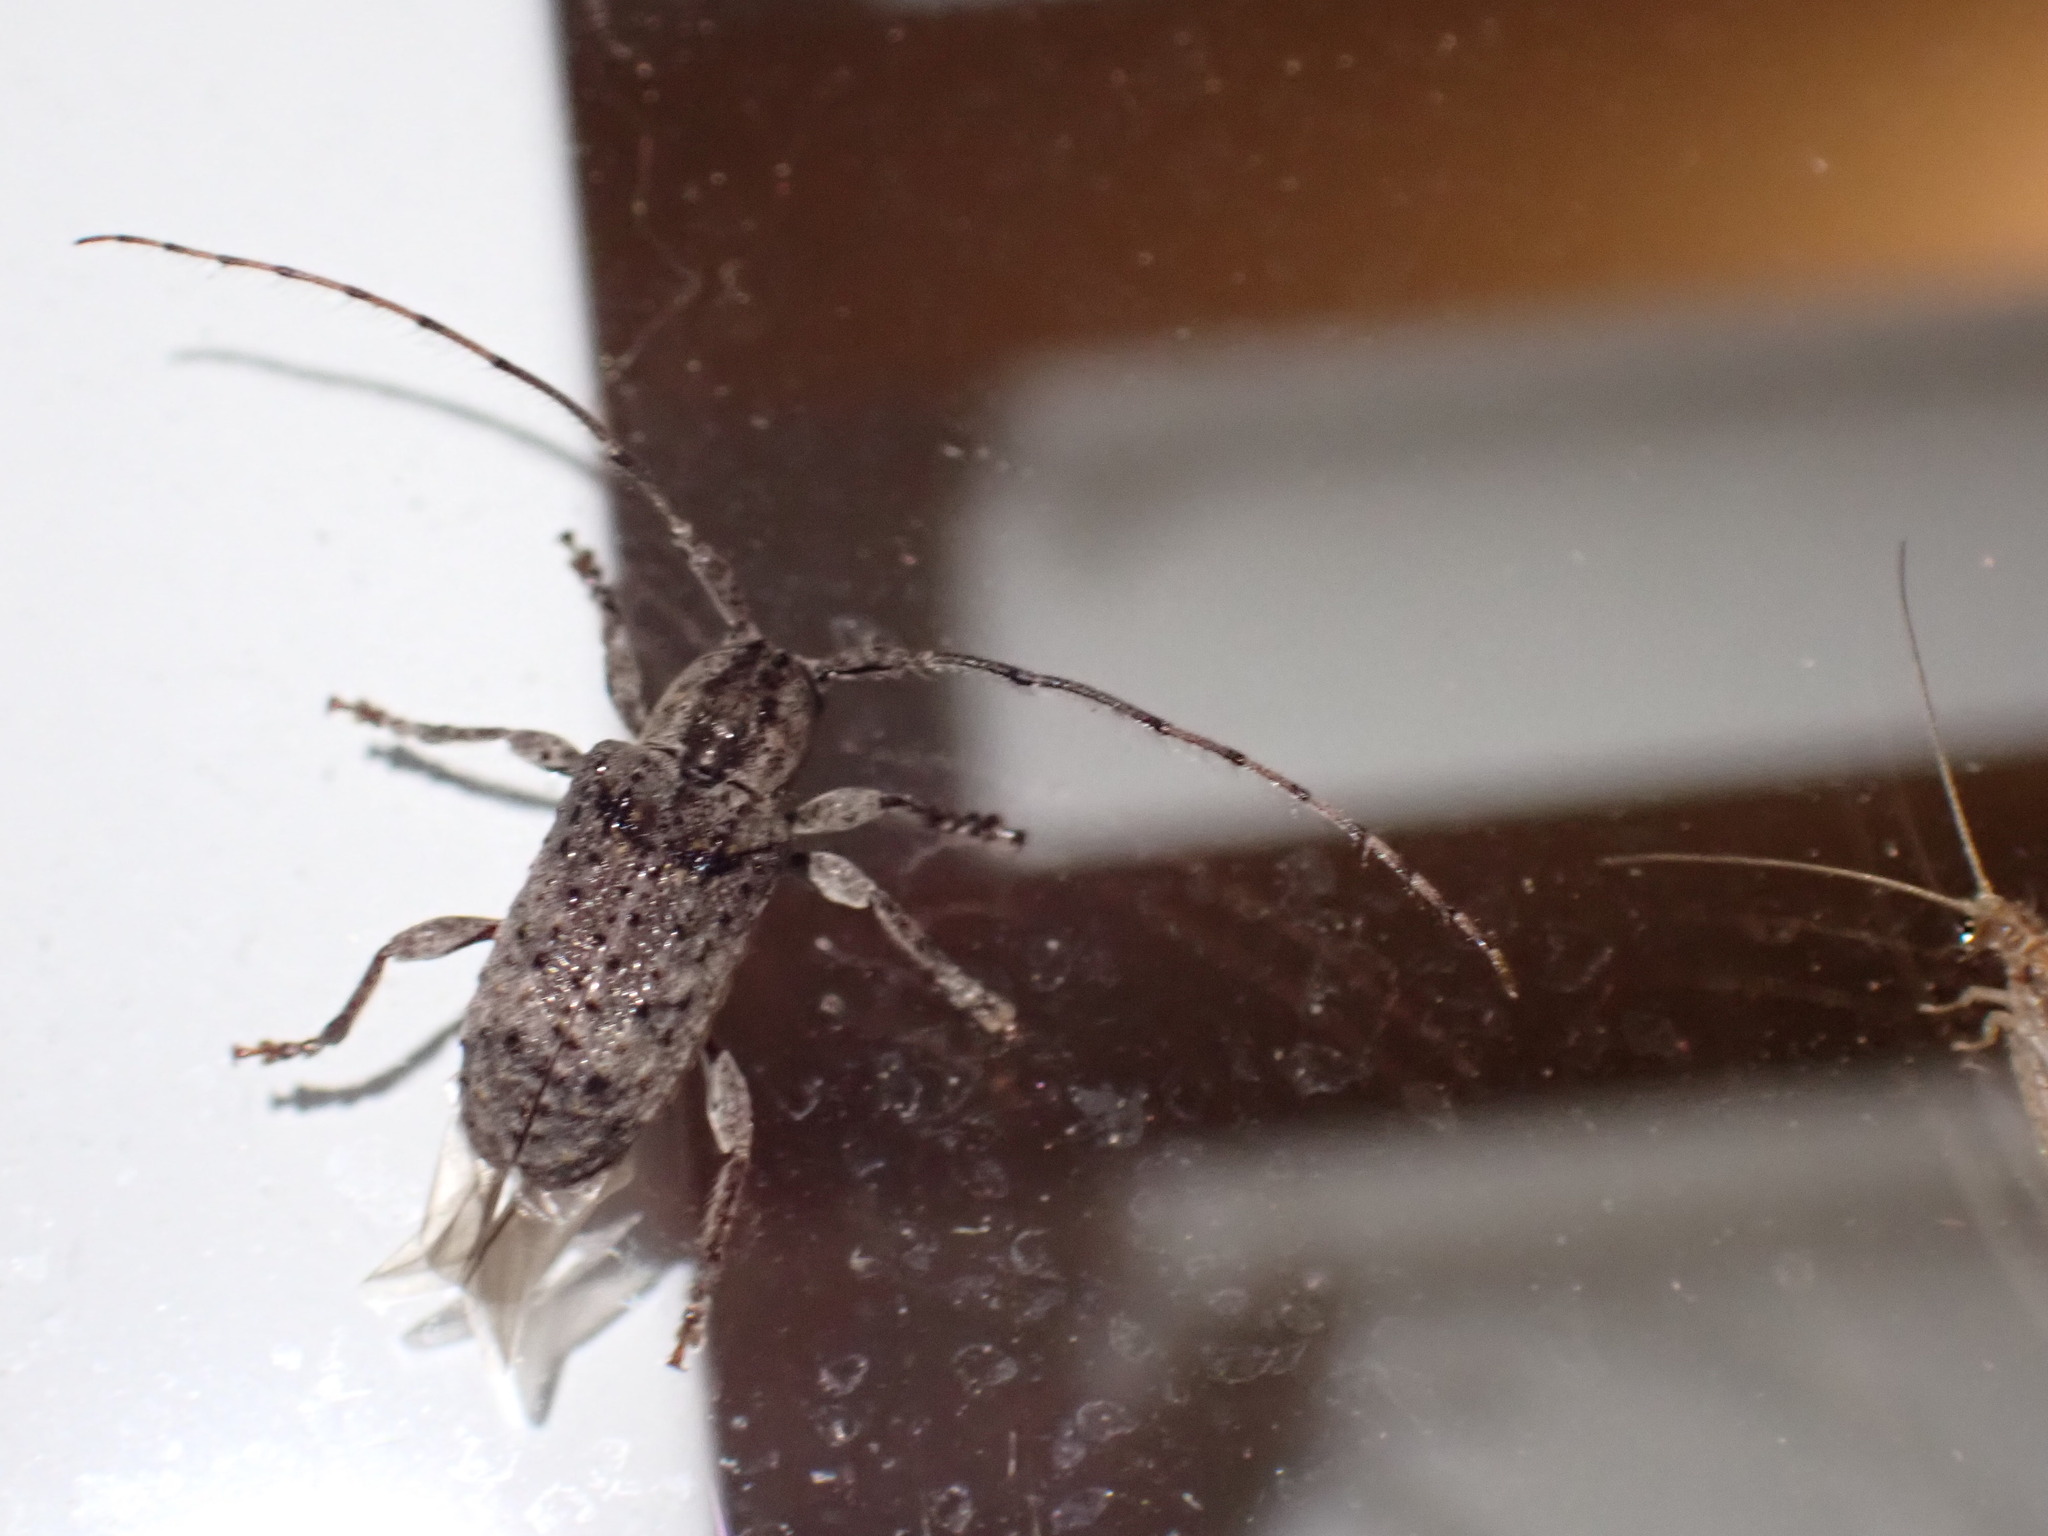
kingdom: Animalia
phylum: Arthropoda
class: Insecta
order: Coleoptera
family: Cerambycidae
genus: Ecyrus
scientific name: Ecyrus dasycerus
